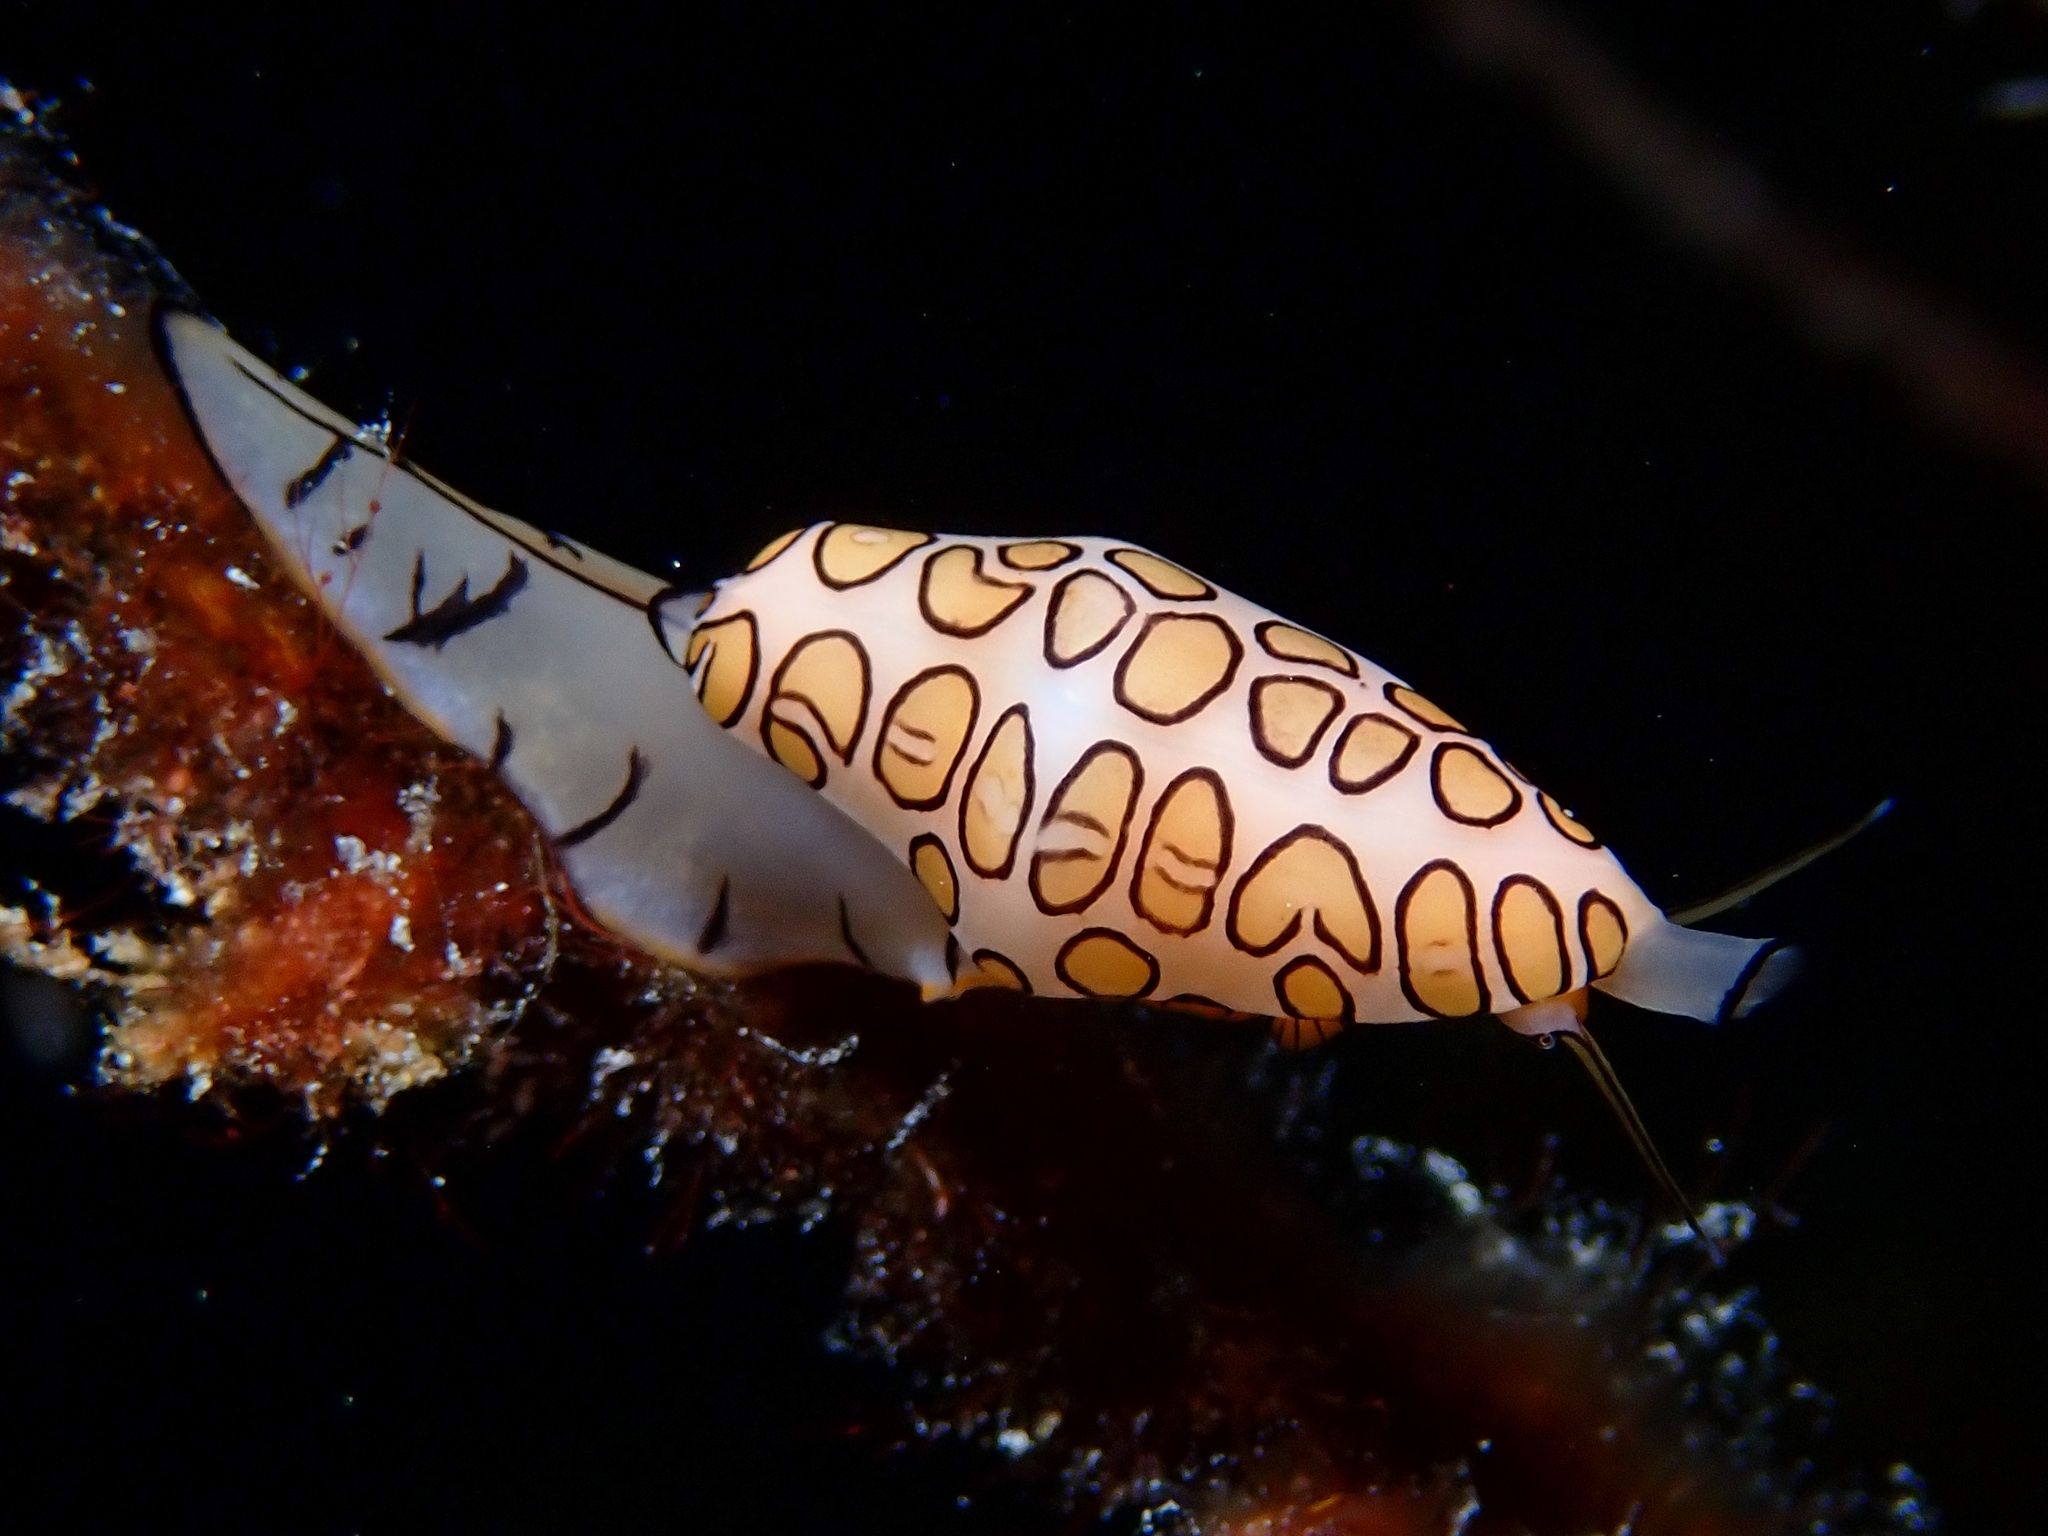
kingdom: Animalia
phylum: Mollusca
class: Gastropoda
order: Littorinimorpha
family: Ovulidae
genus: Cyphoma
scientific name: Cyphoma gibbosum
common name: Flamingo tongue
